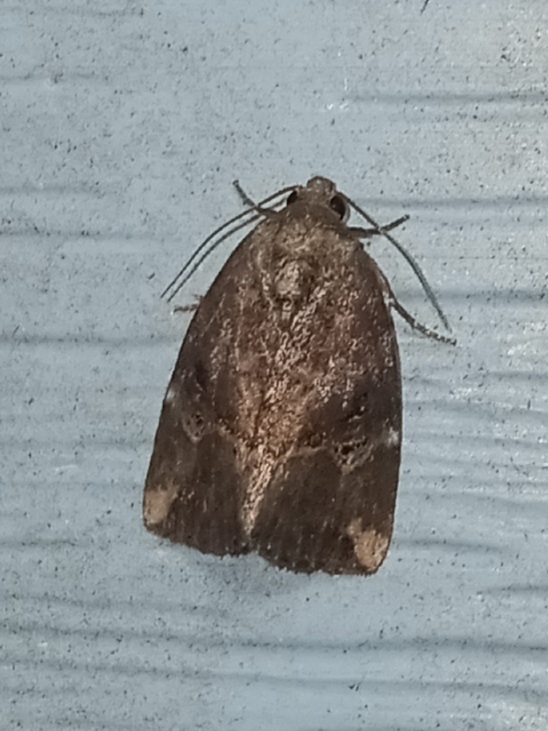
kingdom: Animalia
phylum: Arthropoda
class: Insecta
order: Lepidoptera
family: Noctuidae
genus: Elaphria
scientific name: Elaphria versicolor
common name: Fir harlequin
